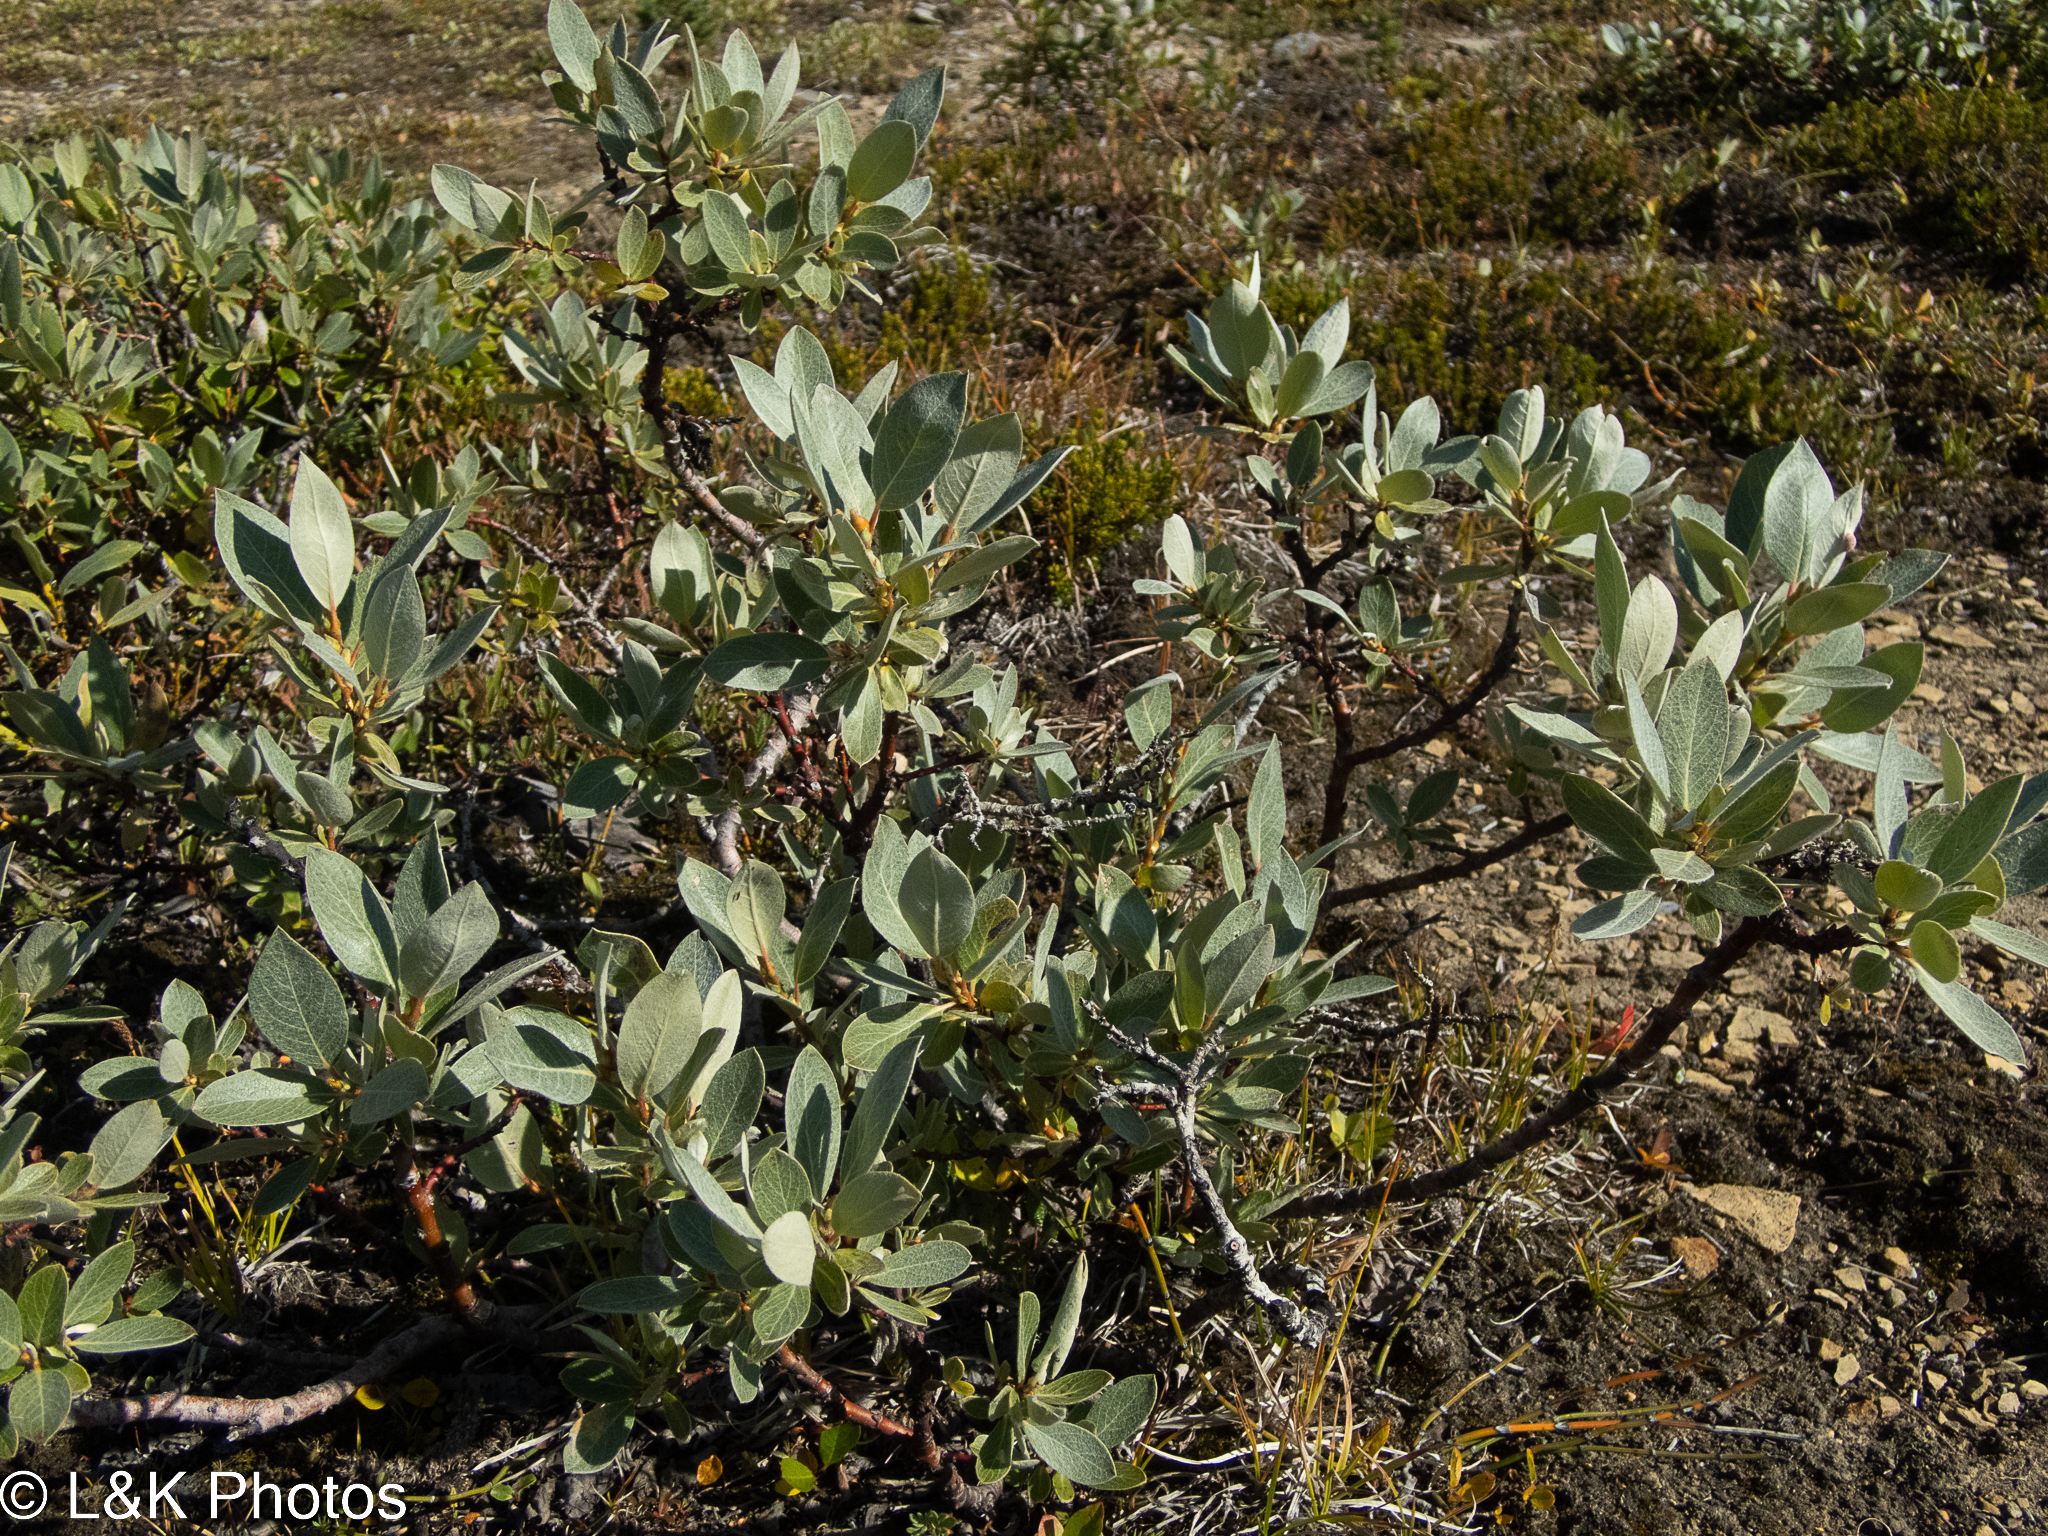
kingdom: Plantae
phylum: Tracheophyta
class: Magnoliopsida
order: Malpighiales
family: Salicaceae
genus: Salix
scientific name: Salix barrattiana
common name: Barratt's willow
